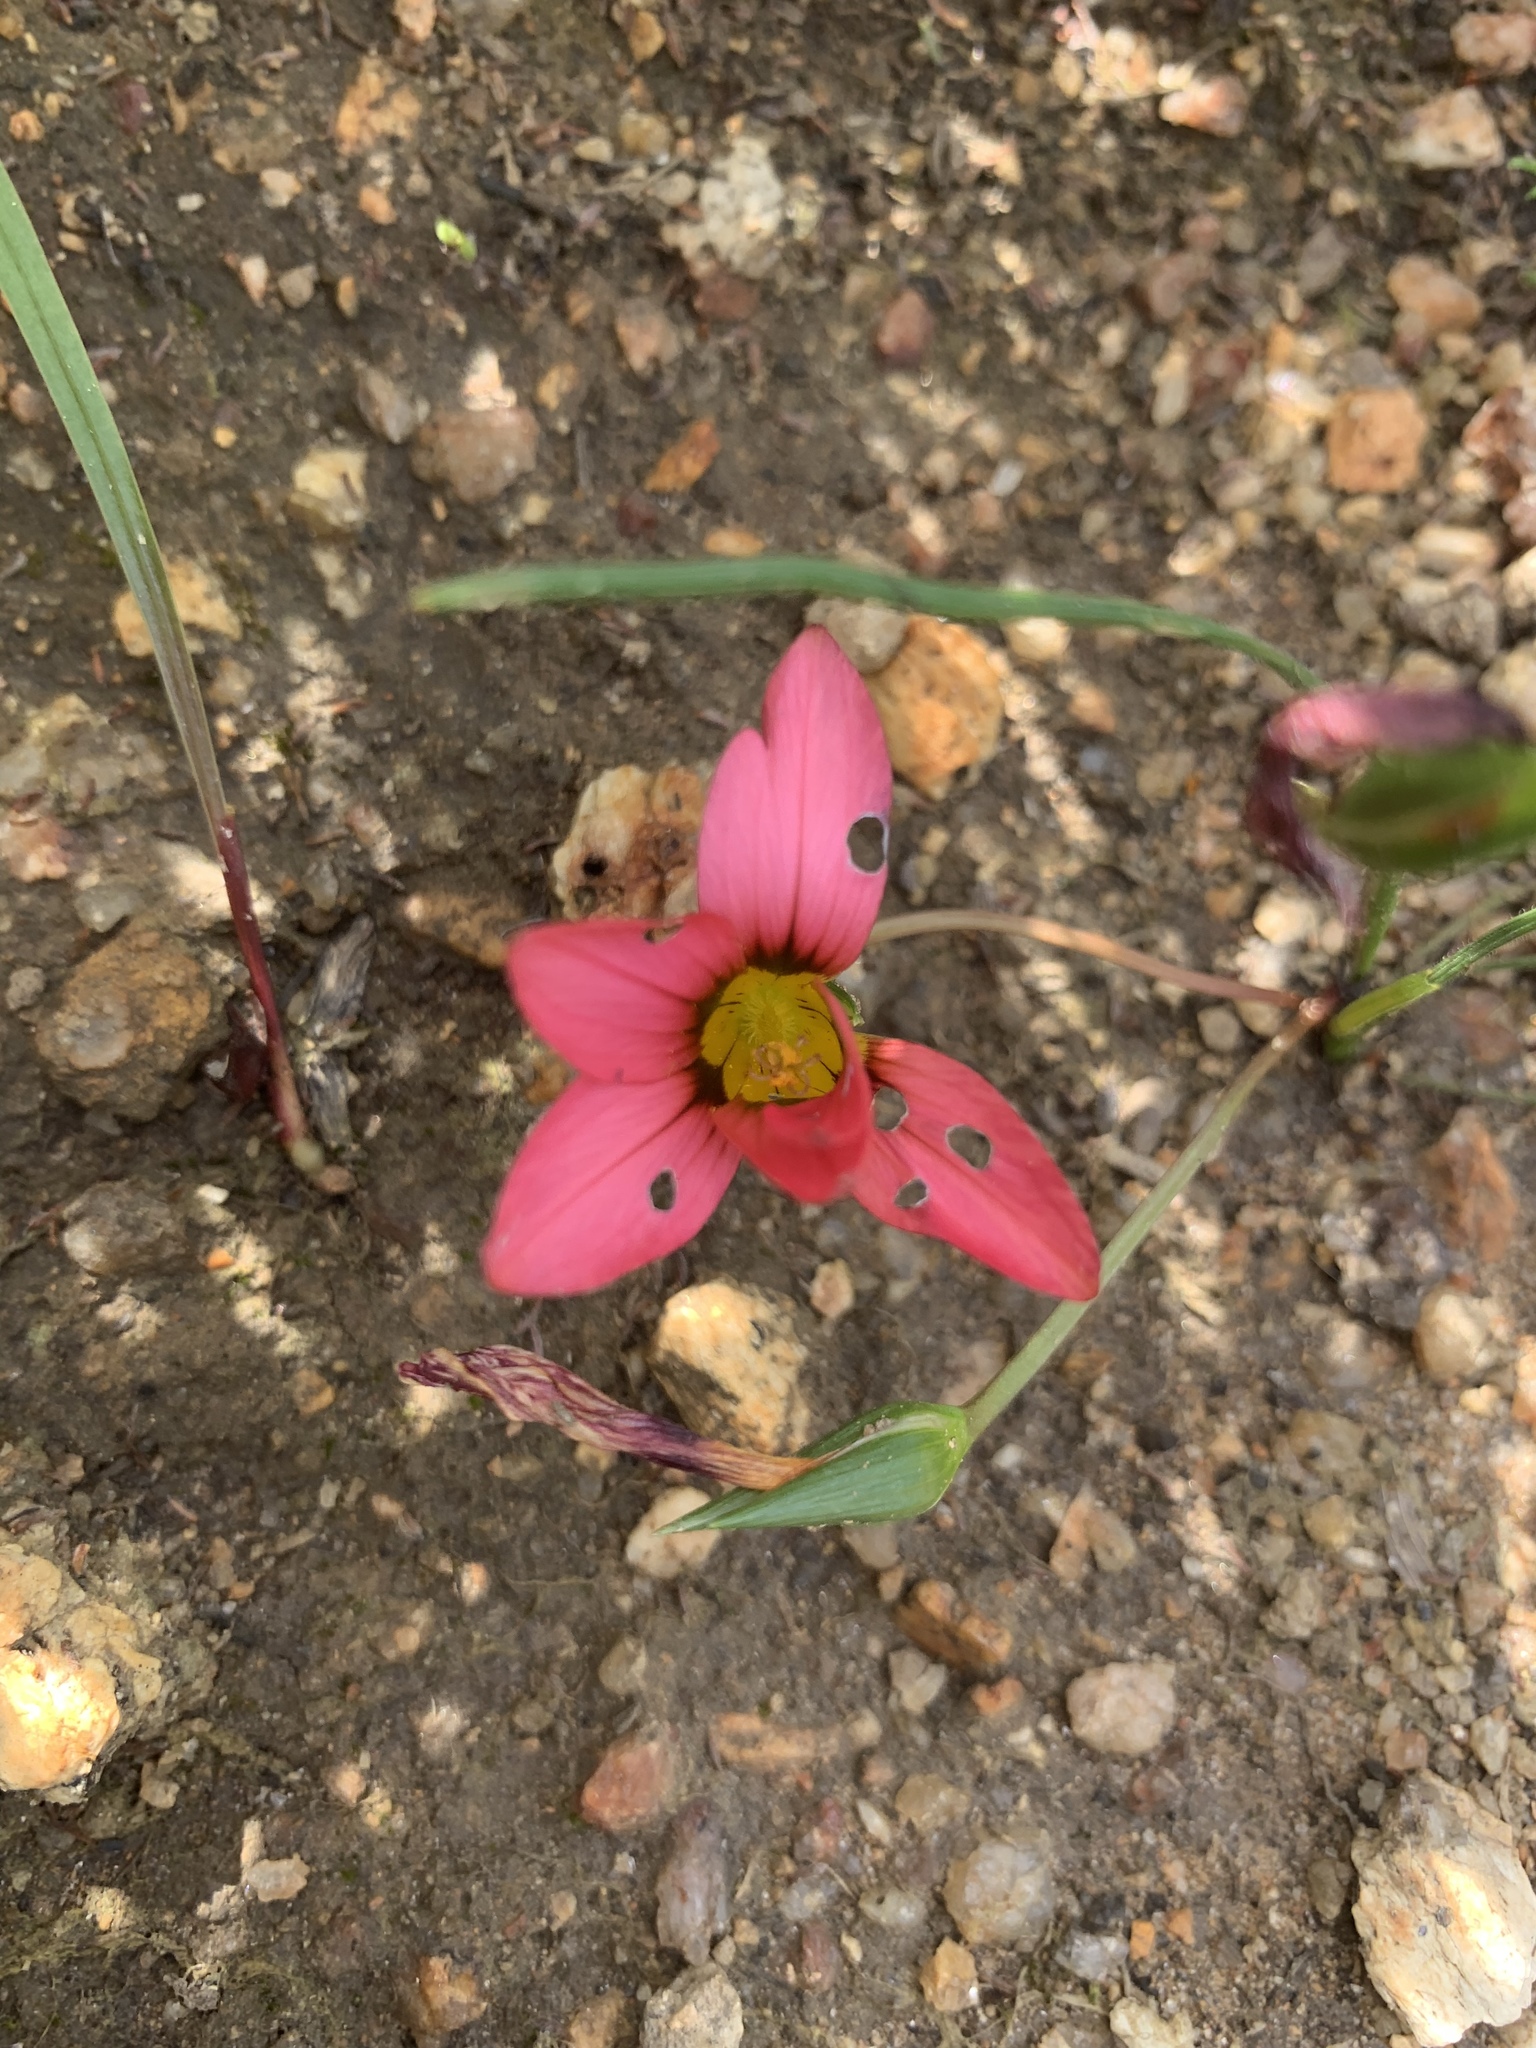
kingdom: Plantae
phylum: Tracheophyta
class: Liliopsida
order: Asparagales
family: Iridaceae
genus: Romulea
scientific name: Romulea hirsuta
